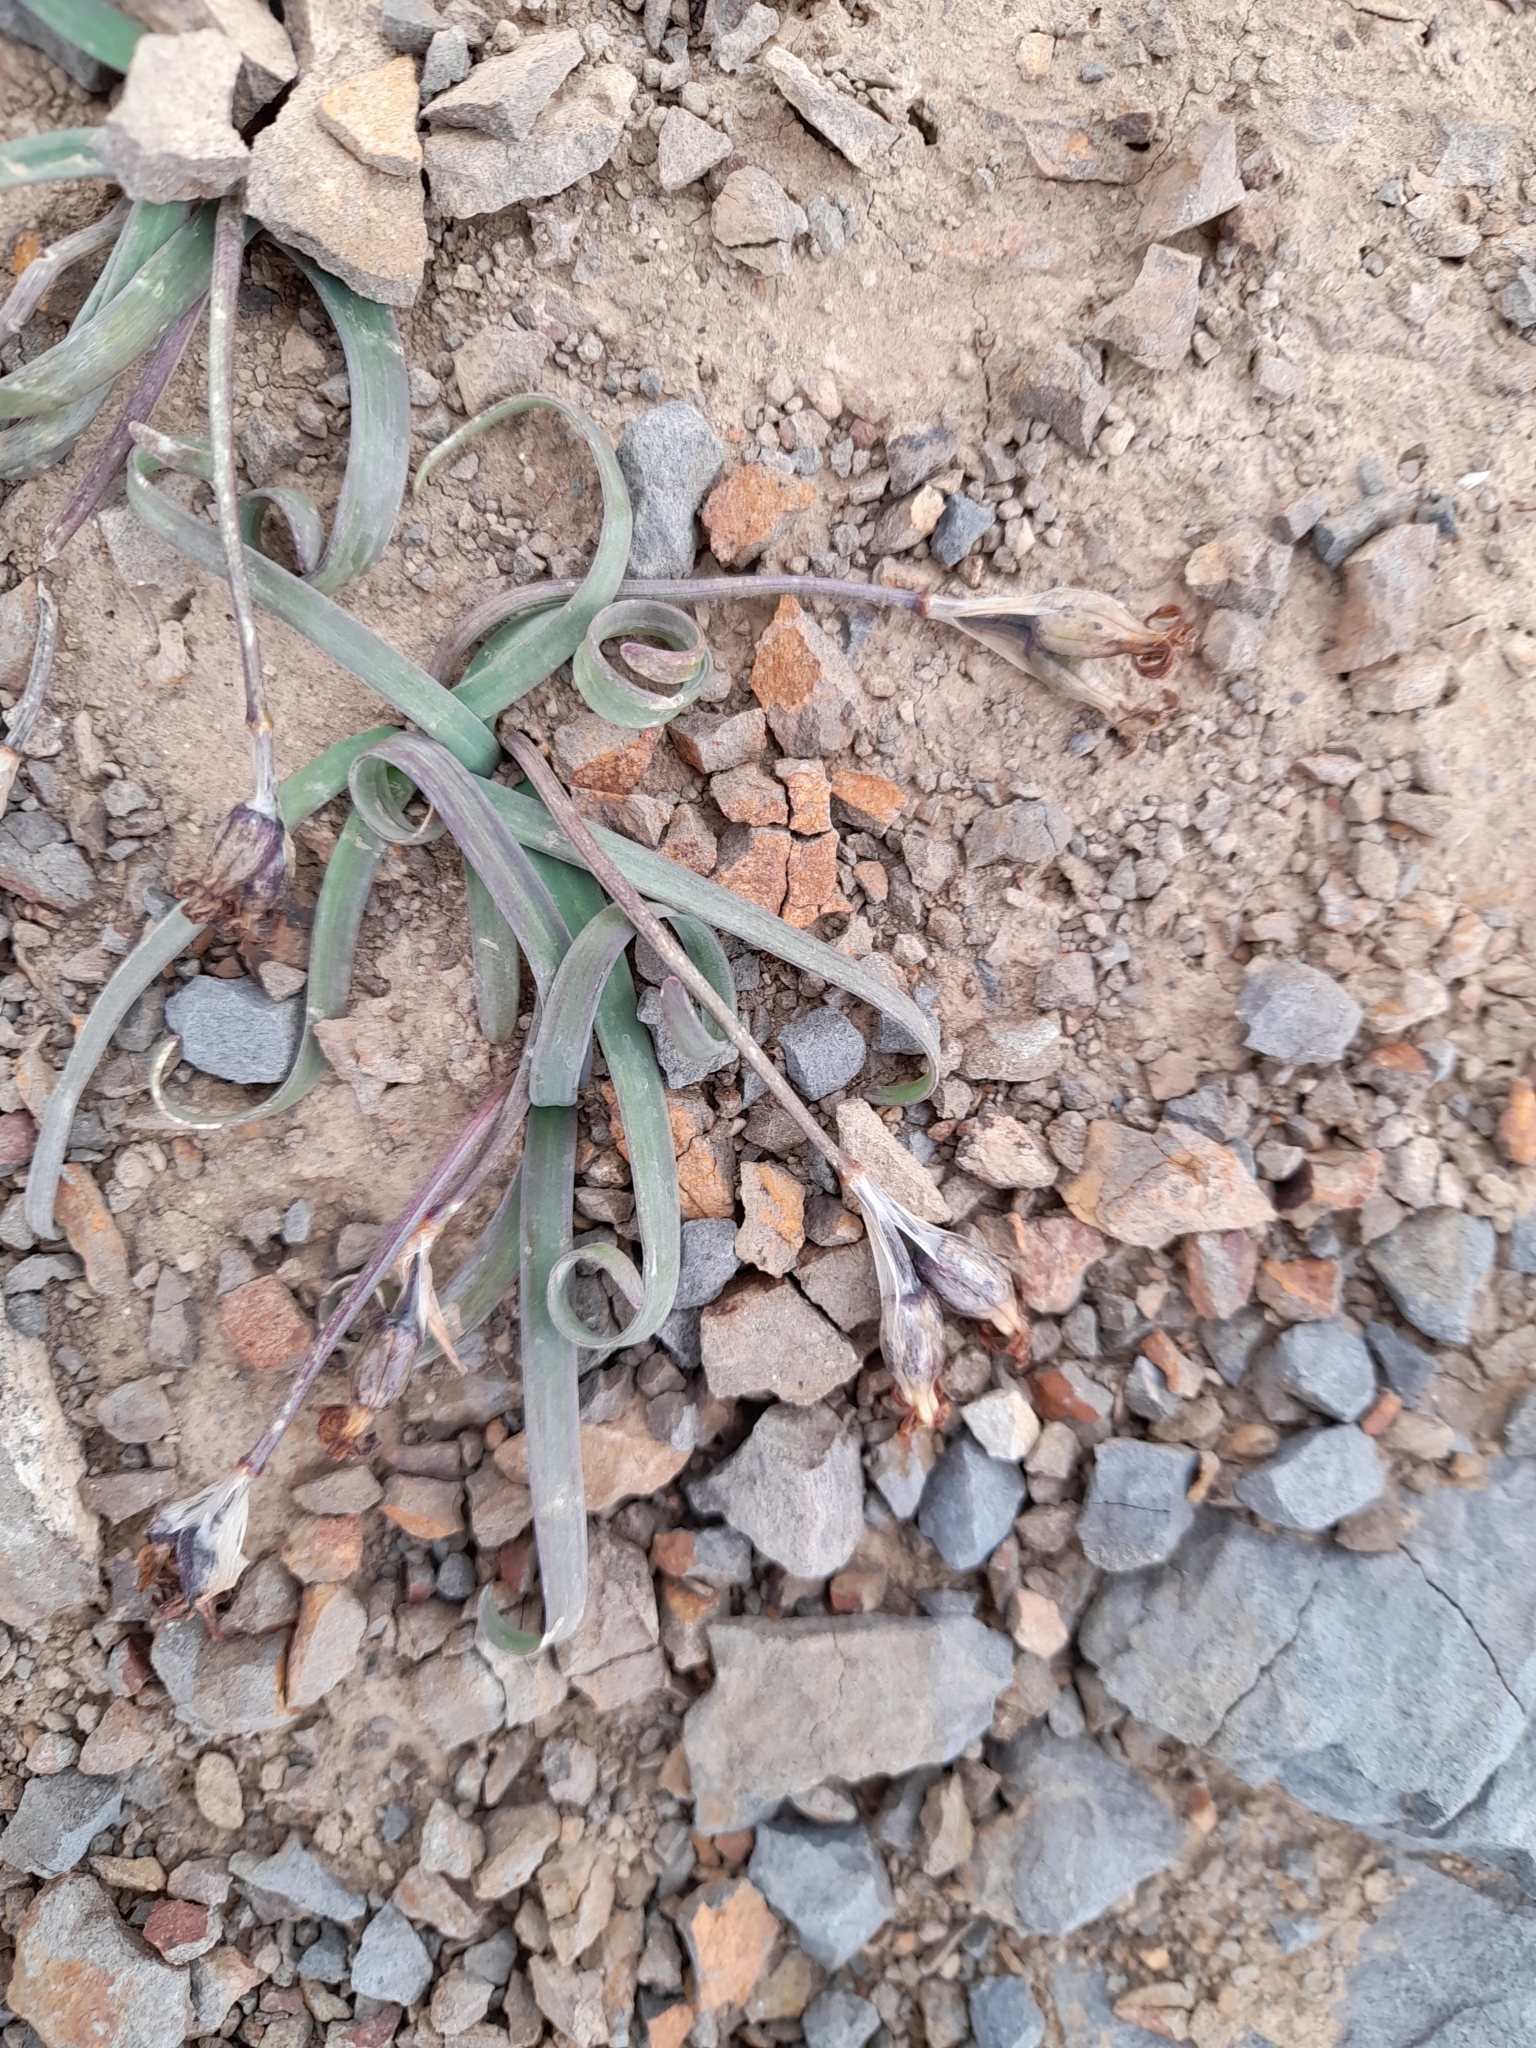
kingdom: Plantae
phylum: Tracheophyta
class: Liliopsida
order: Asparagales
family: Amaryllidaceae
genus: Tristagma
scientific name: Tristagma nivale
